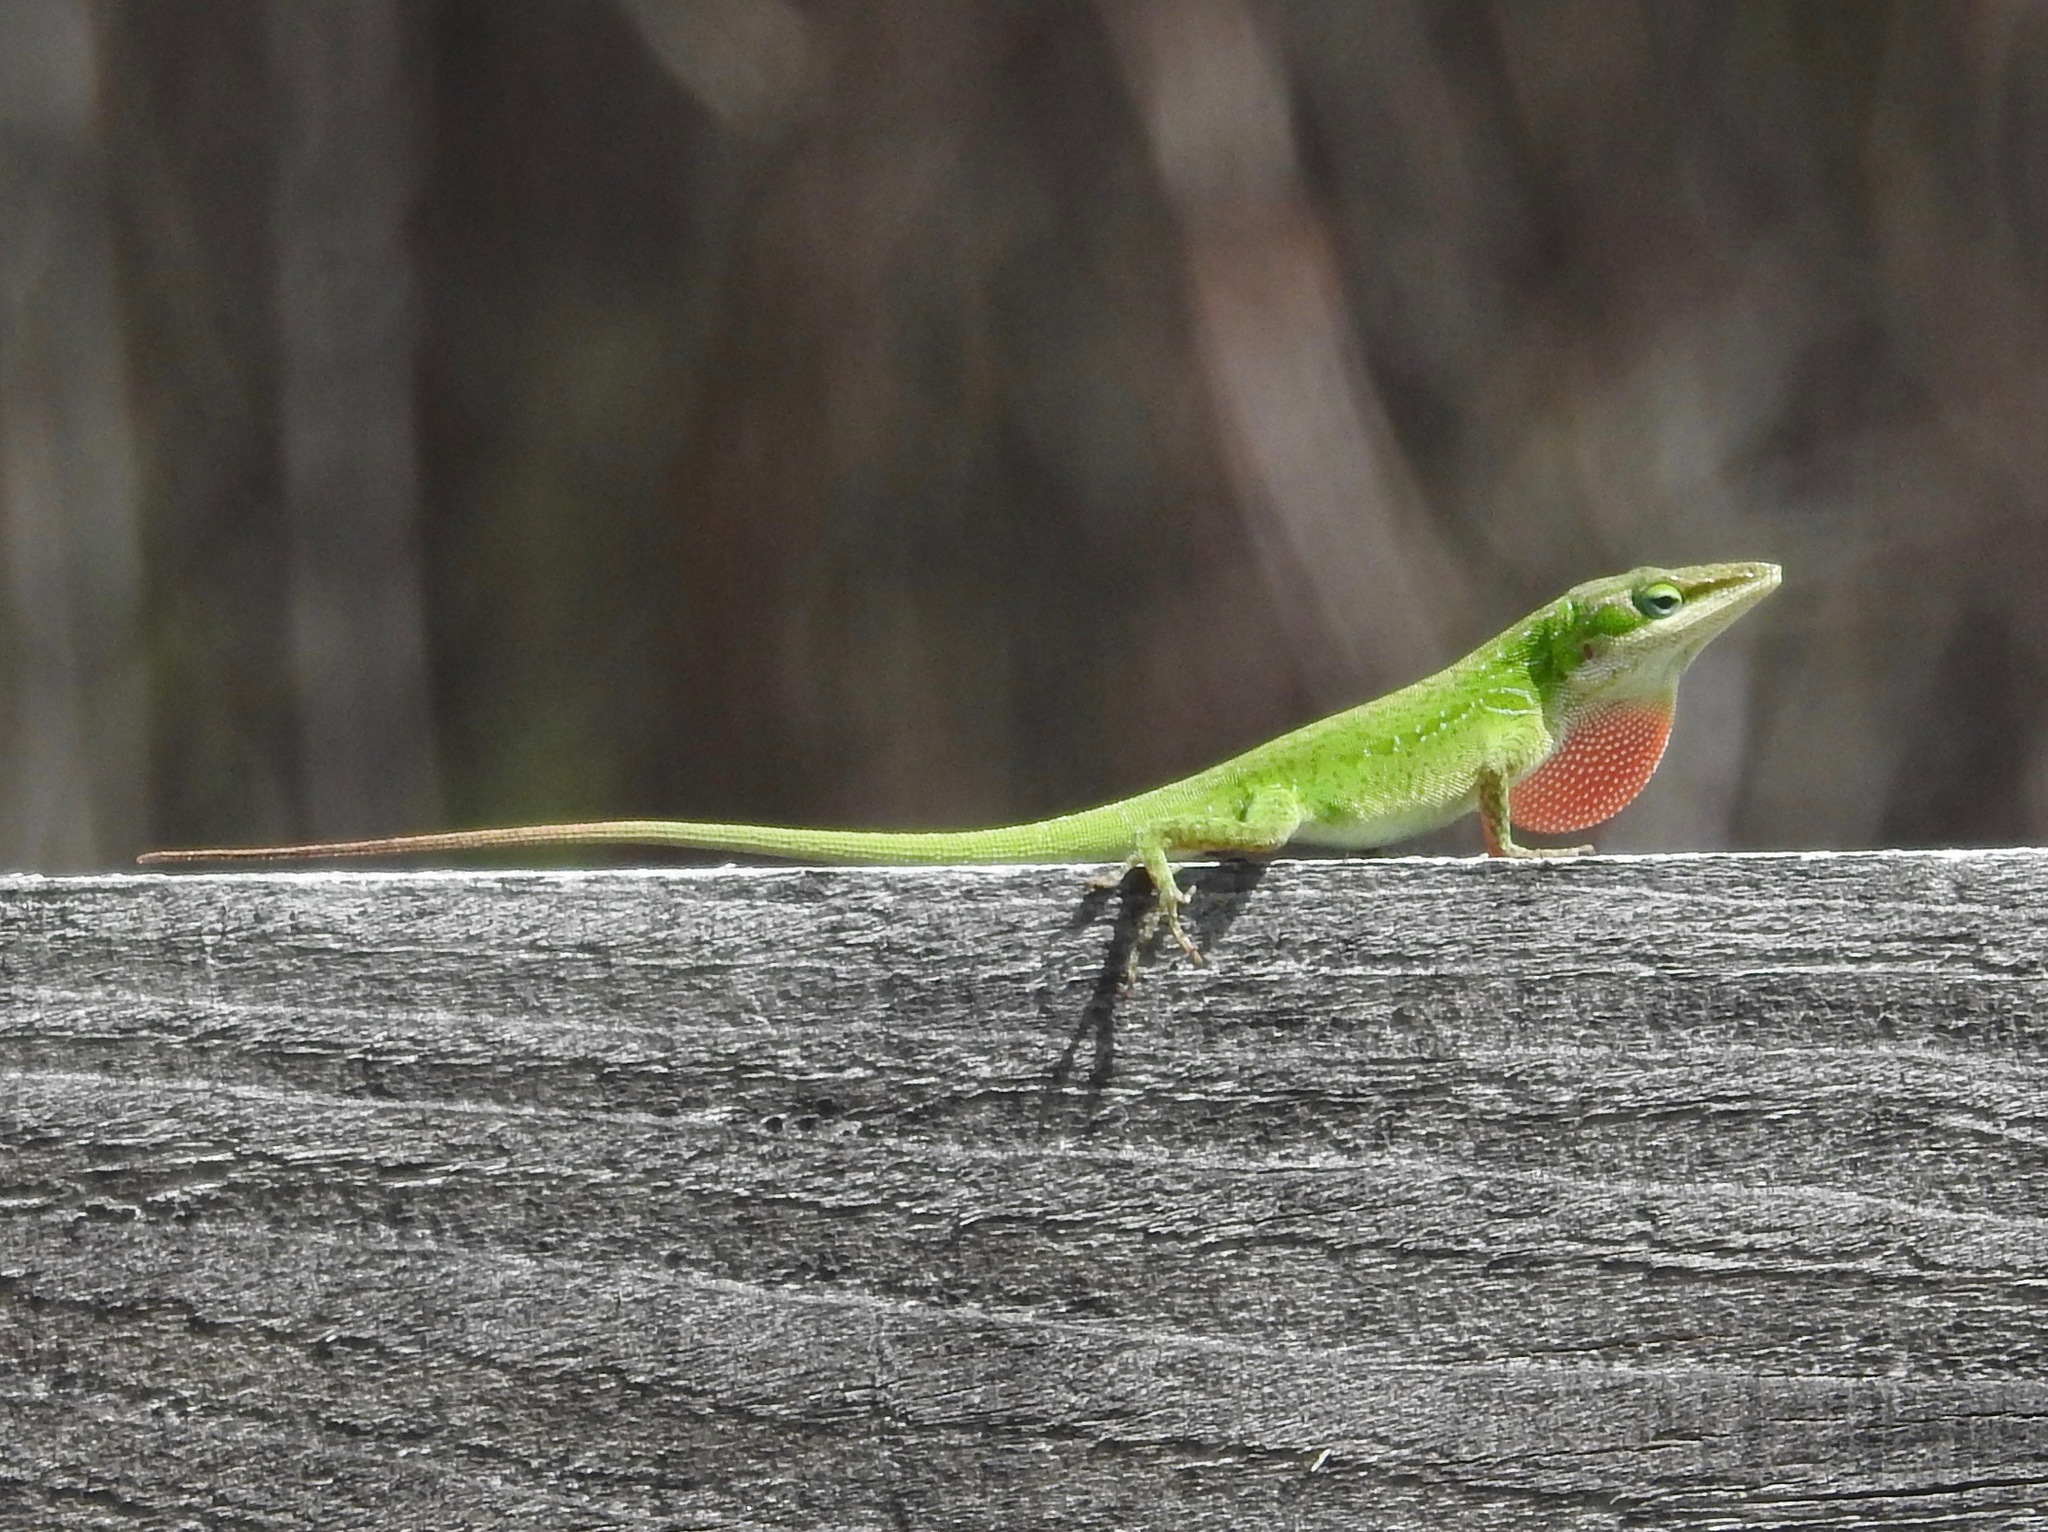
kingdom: Animalia
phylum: Chordata
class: Squamata
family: Dactyloidae
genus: Anolis
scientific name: Anolis carolinensis
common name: Green anole
